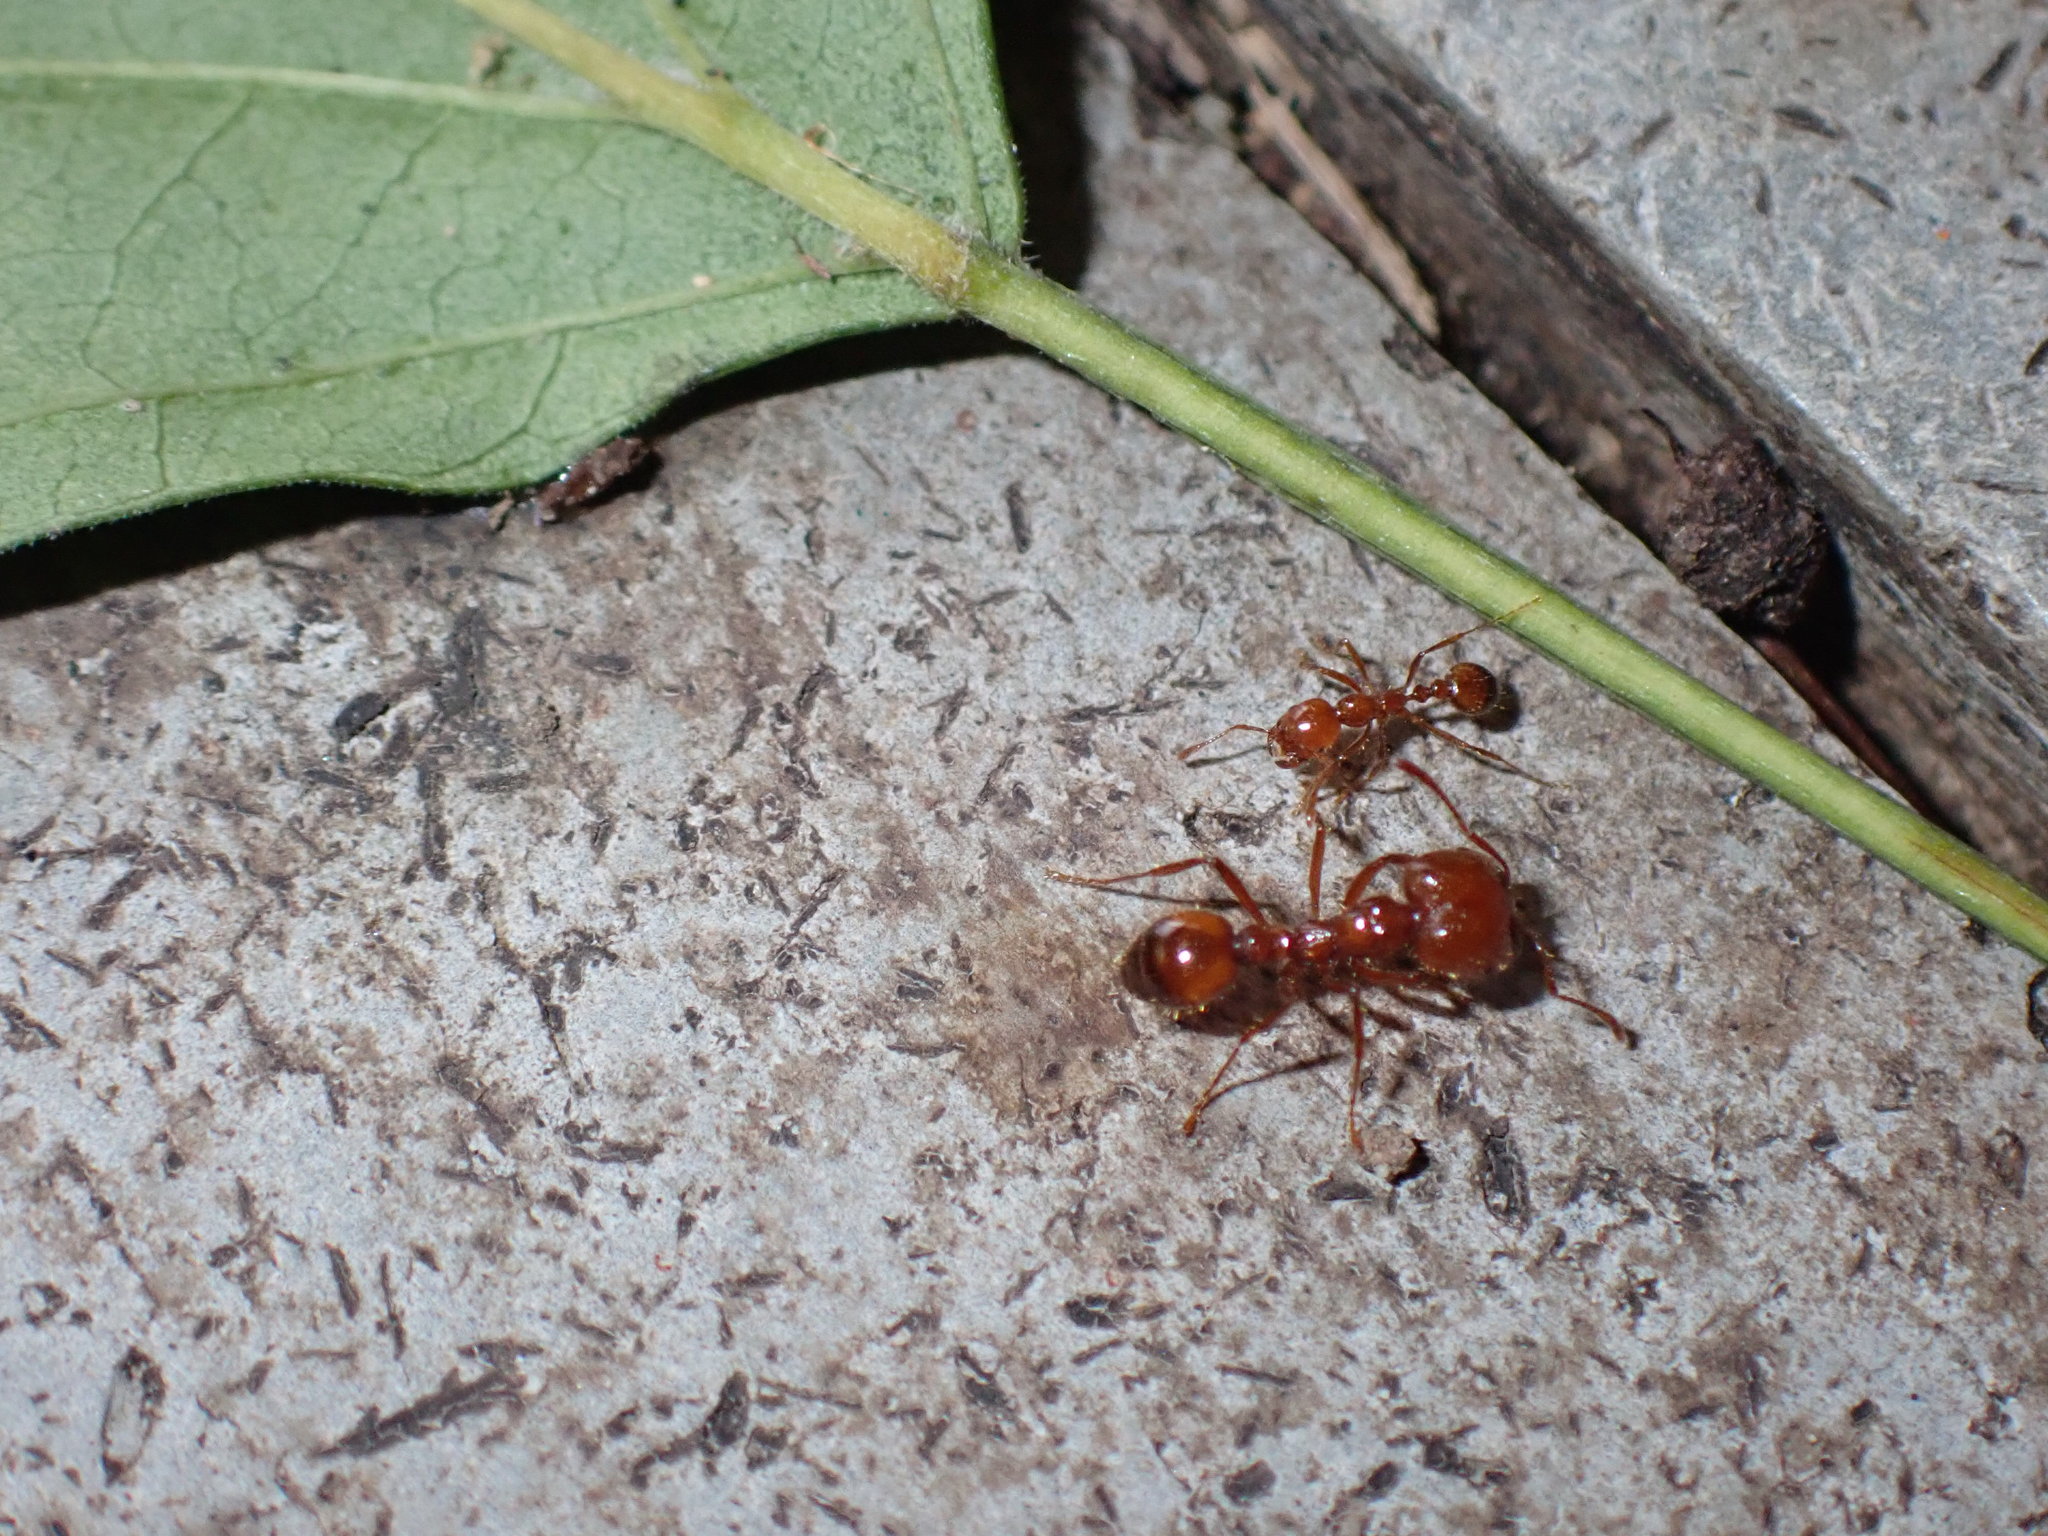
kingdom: Animalia
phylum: Arthropoda
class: Insecta
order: Hymenoptera
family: Formicidae
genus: Solenopsis
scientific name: Solenopsis geminata
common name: Tropical fire ant
